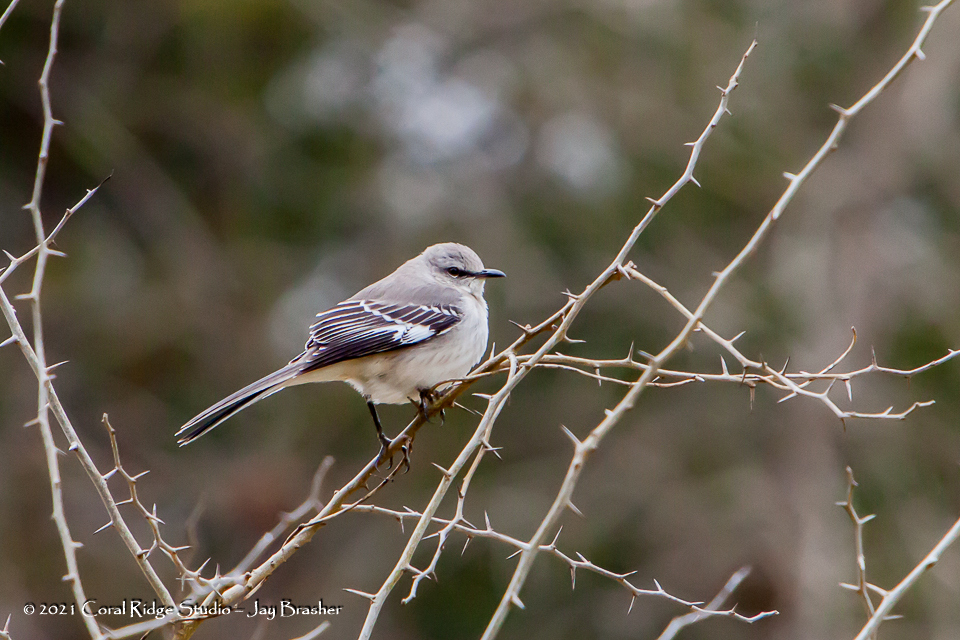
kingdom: Animalia
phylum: Chordata
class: Aves
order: Passeriformes
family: Mimidae
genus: Mimus
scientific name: Mimus polyglottos
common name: Northern mockingbird
